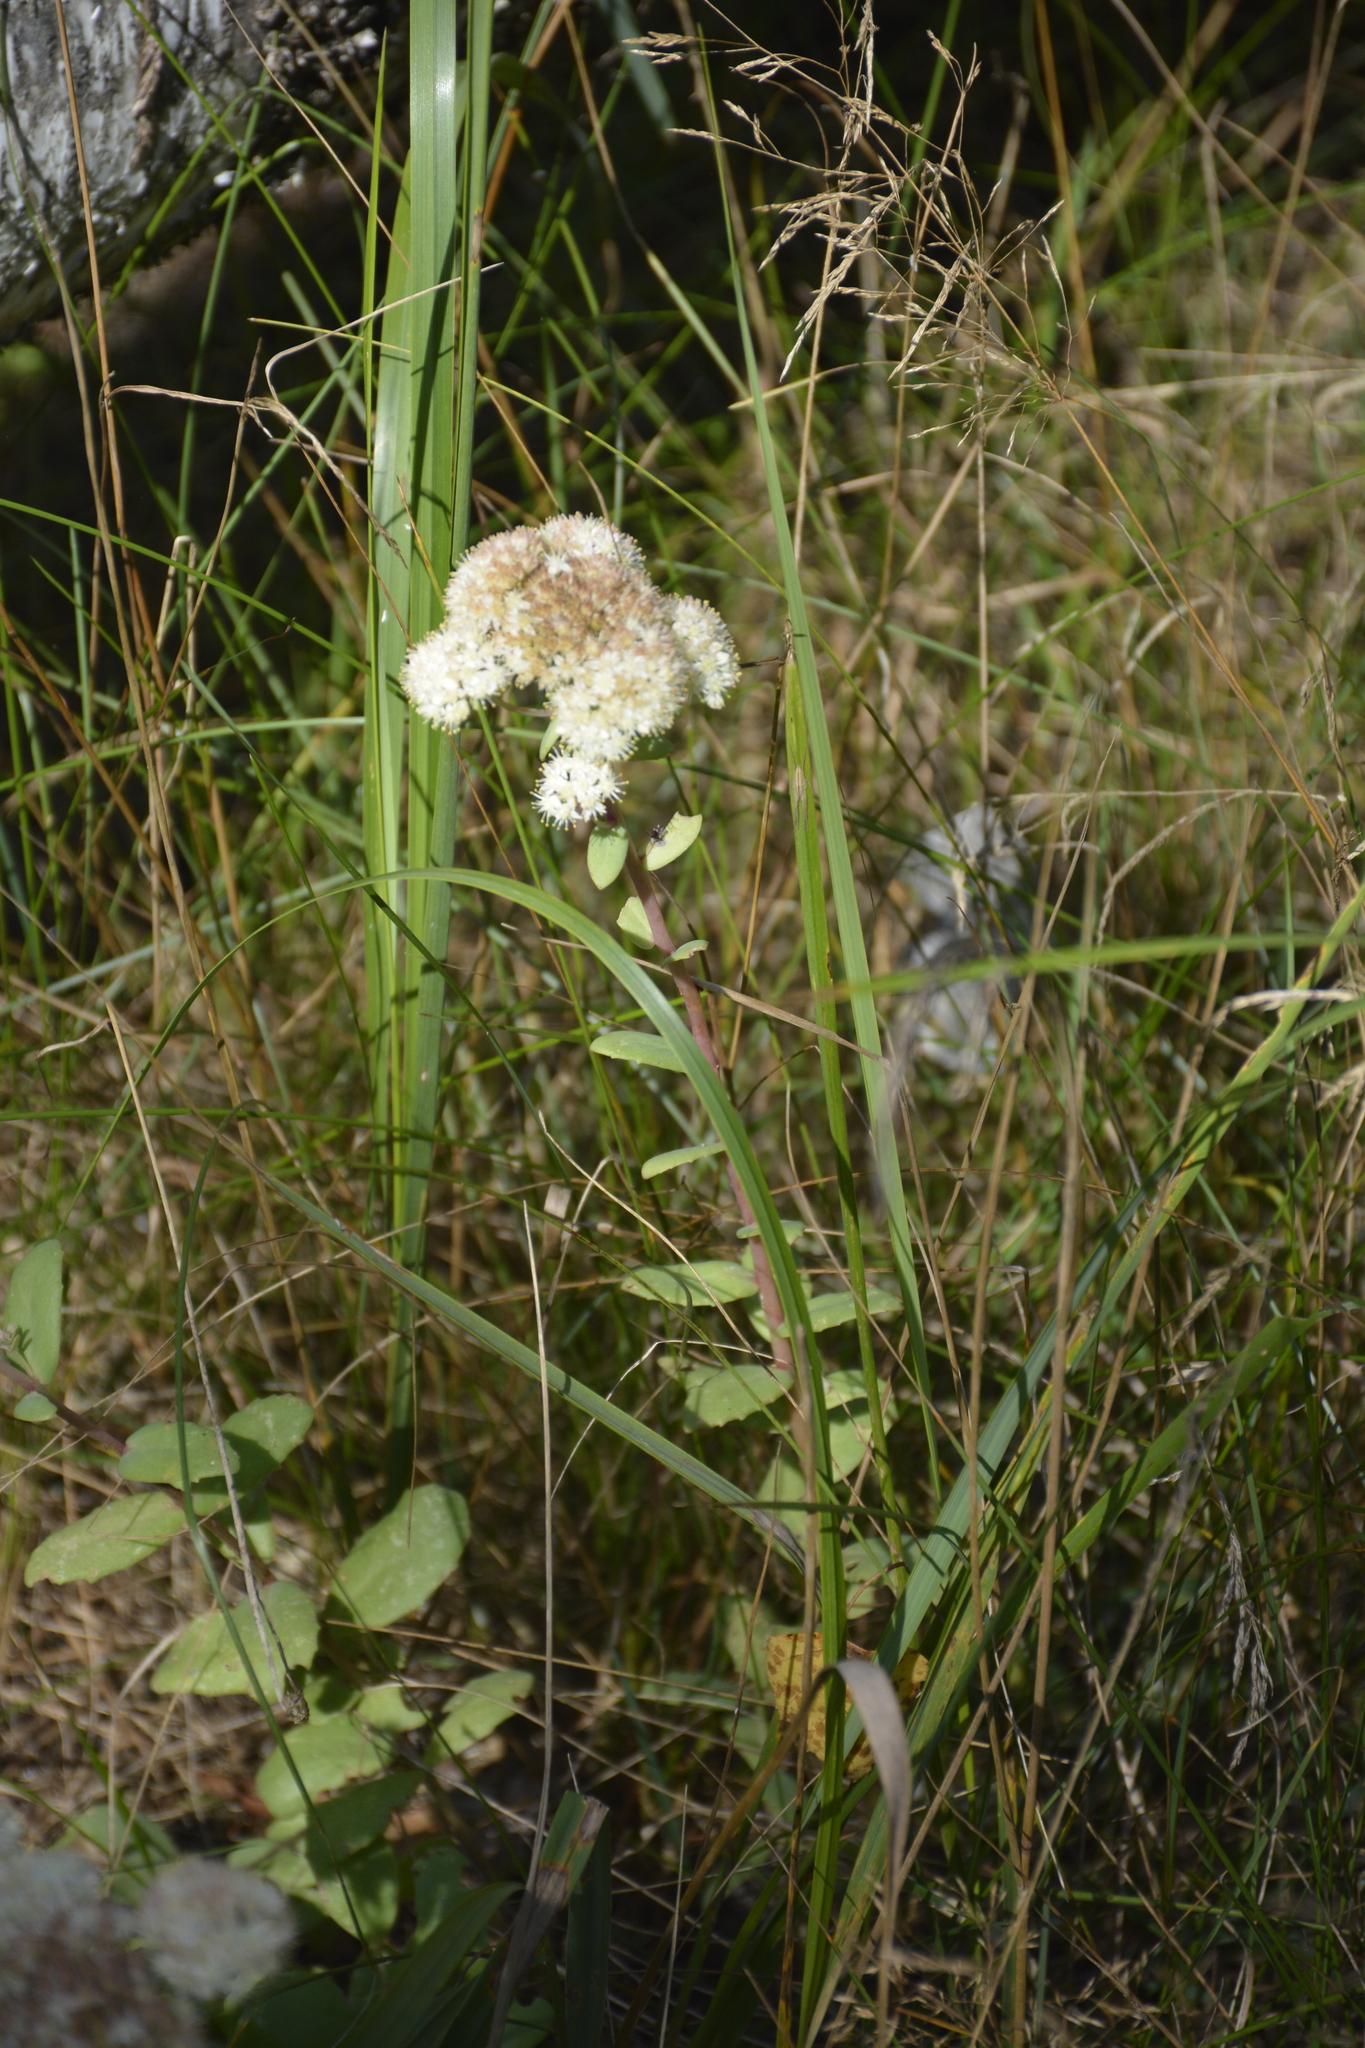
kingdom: Plantae
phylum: Tracheophyta
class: Magnoliopsida
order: Saxifragales
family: Crassulaceae
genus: Hylotelephium
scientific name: Hylotelephium maximum
